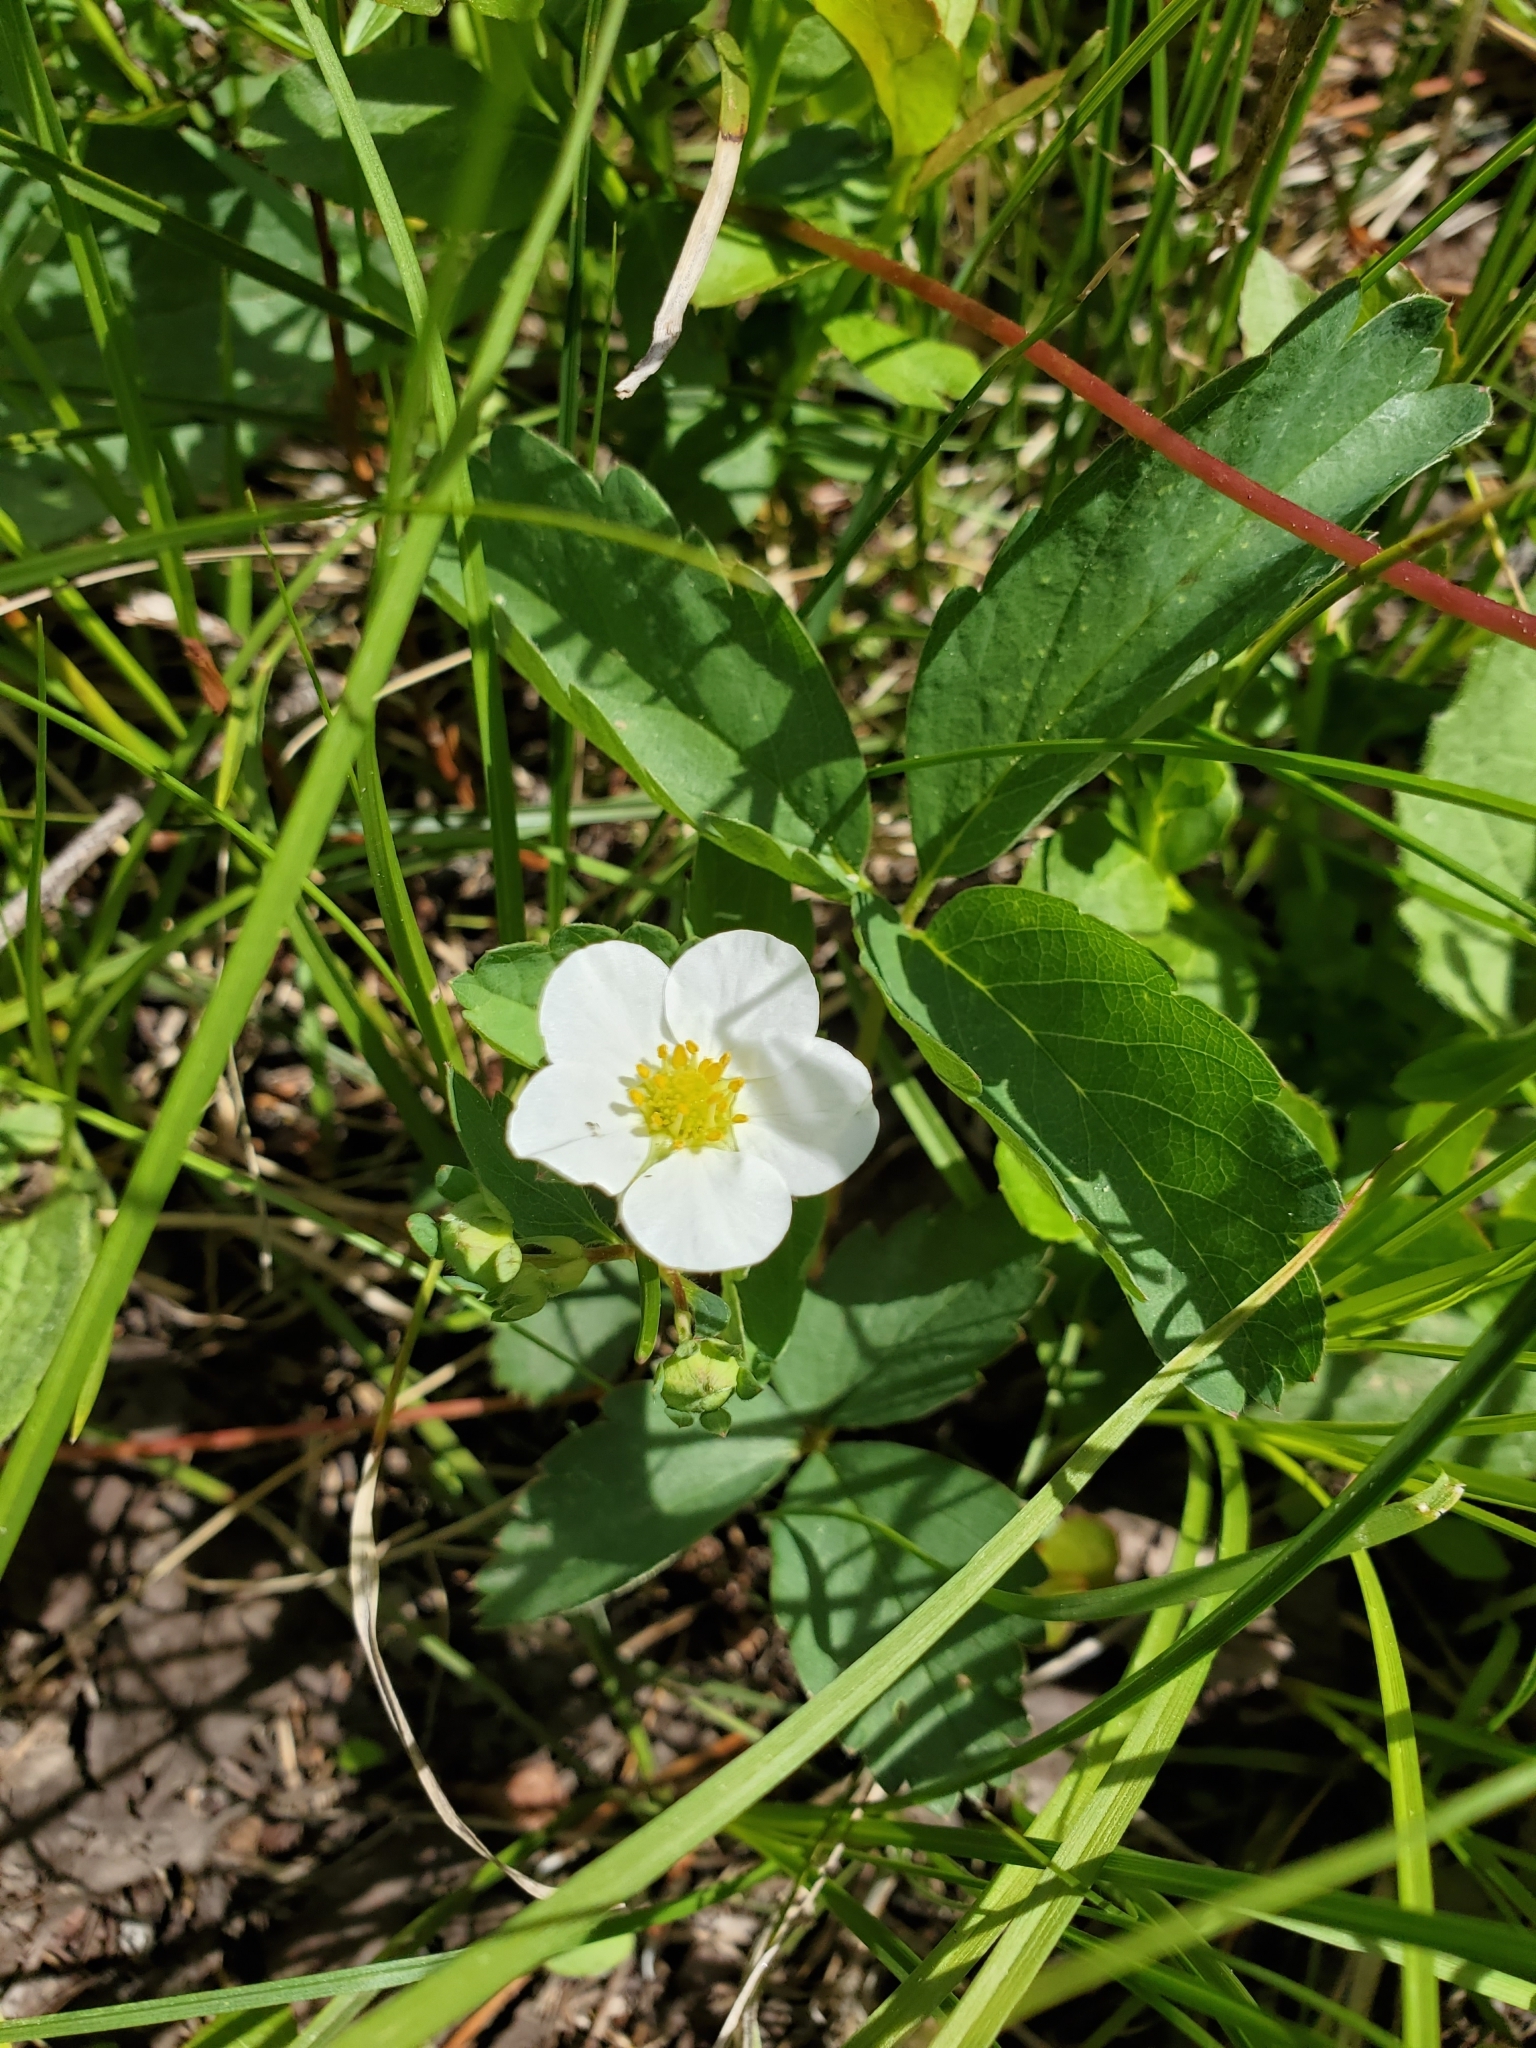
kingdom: Plantae
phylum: Tracheophyta
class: Magnoliopsida
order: Rosales
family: Rosaceae
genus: Fragaria
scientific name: Fragaria virginiana
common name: Thickleaved wild strawberry
